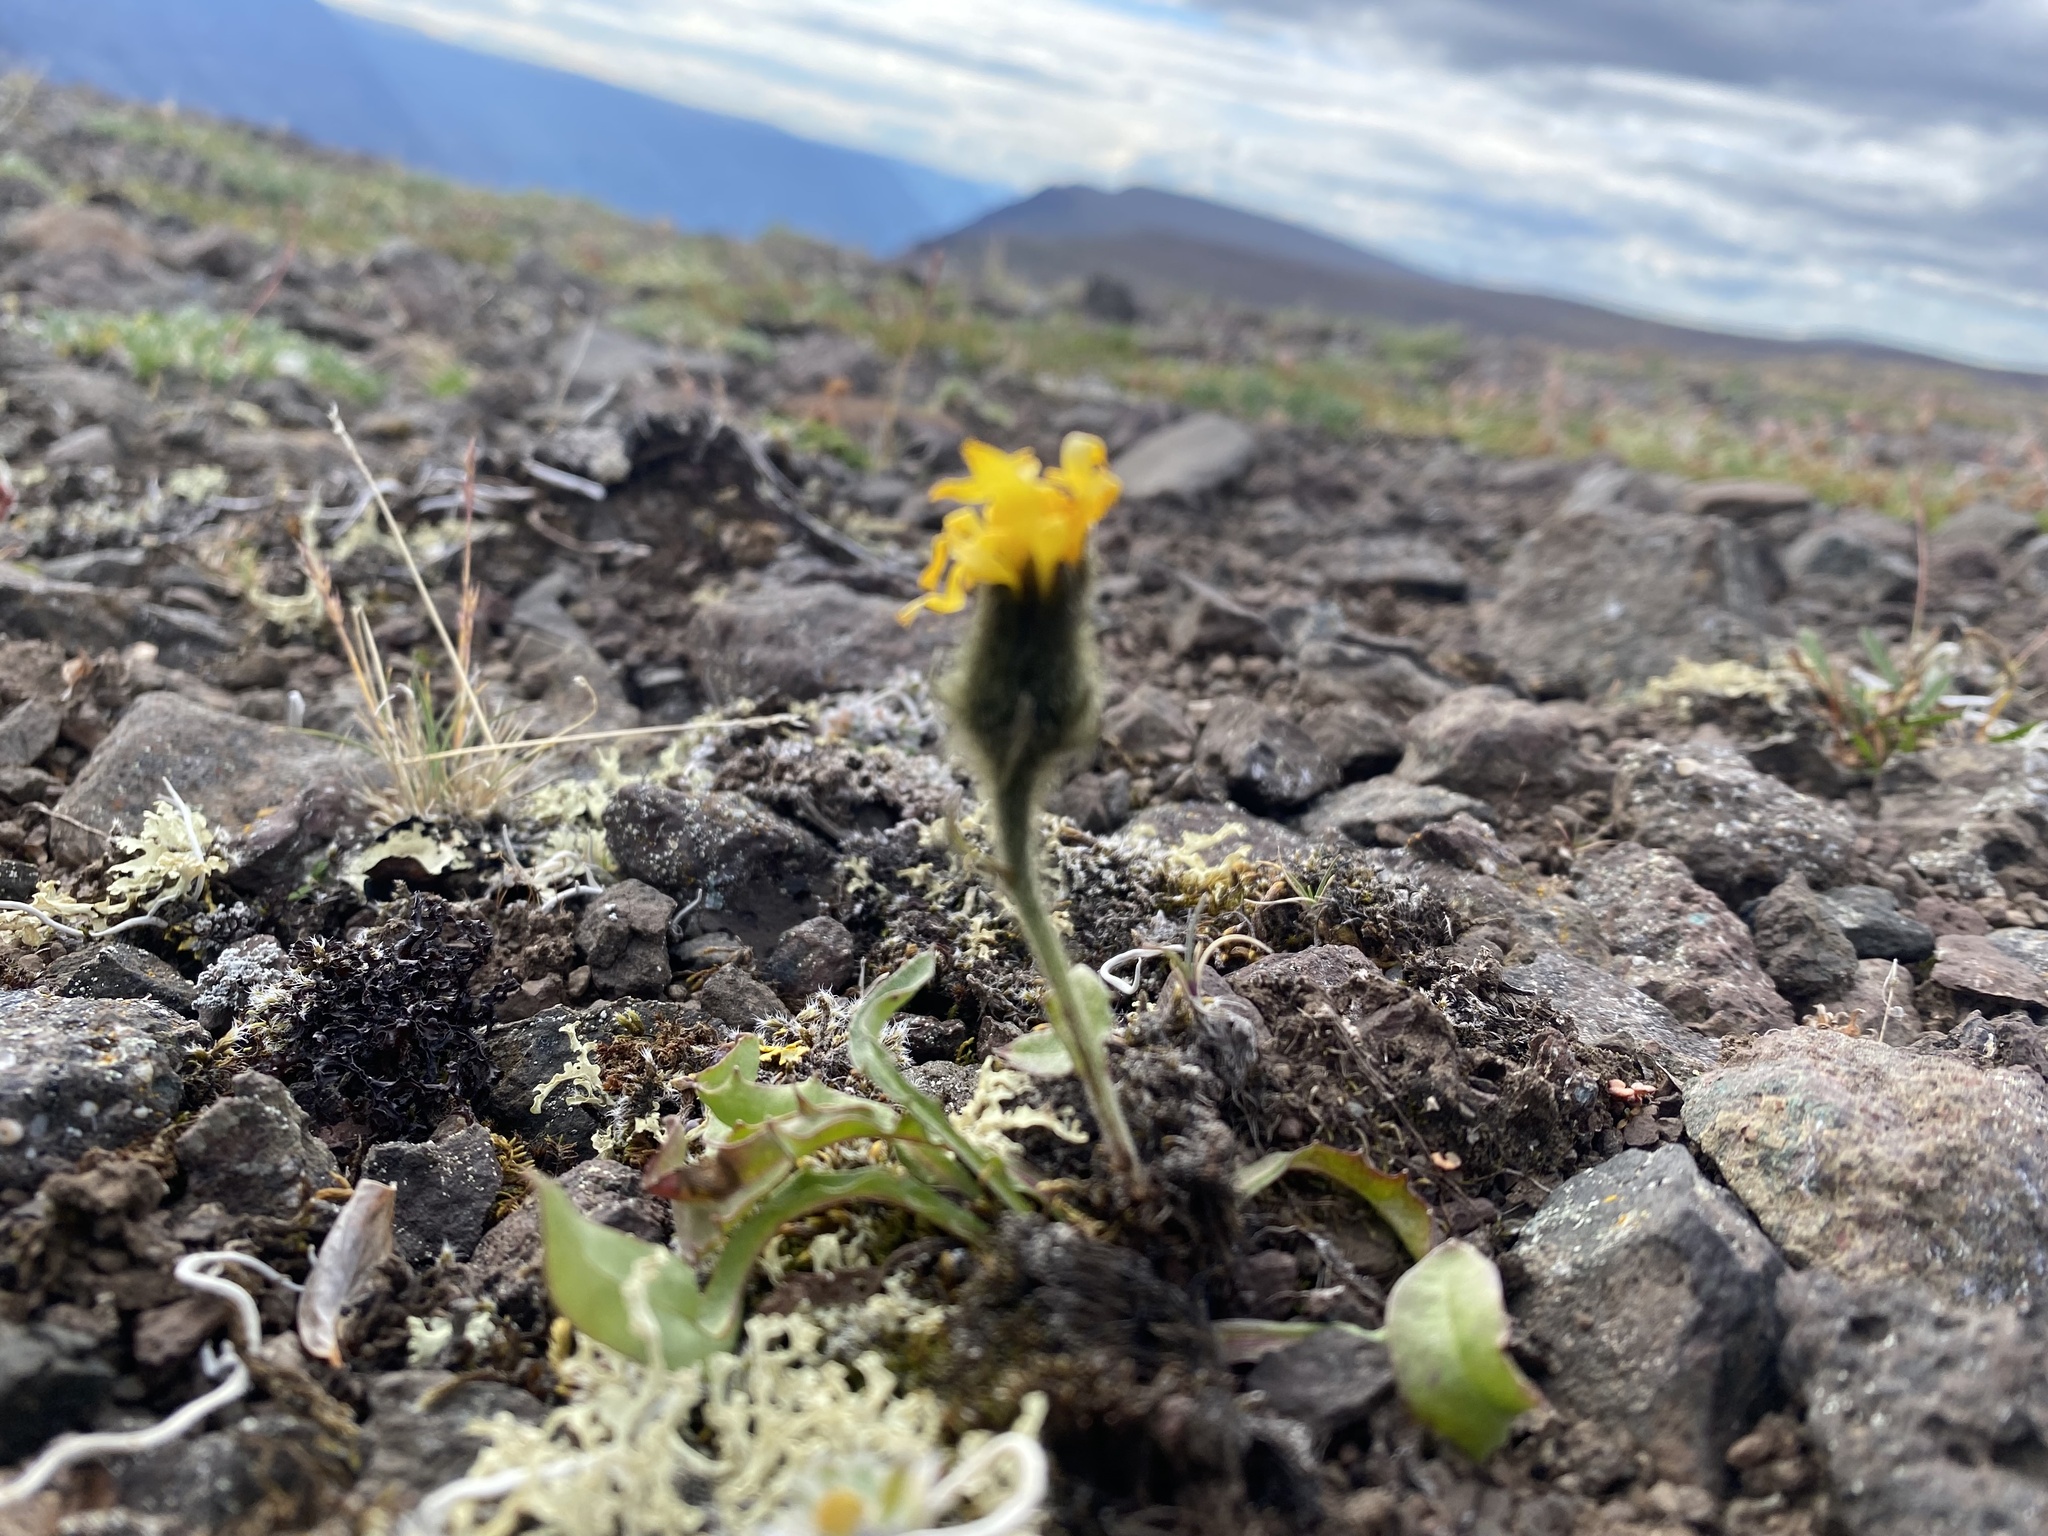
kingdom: Plantae
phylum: Tracheophyta
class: Magnoliopsida
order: Asterales
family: Asteraceae
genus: Crepis
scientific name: Crepis chrysantha
